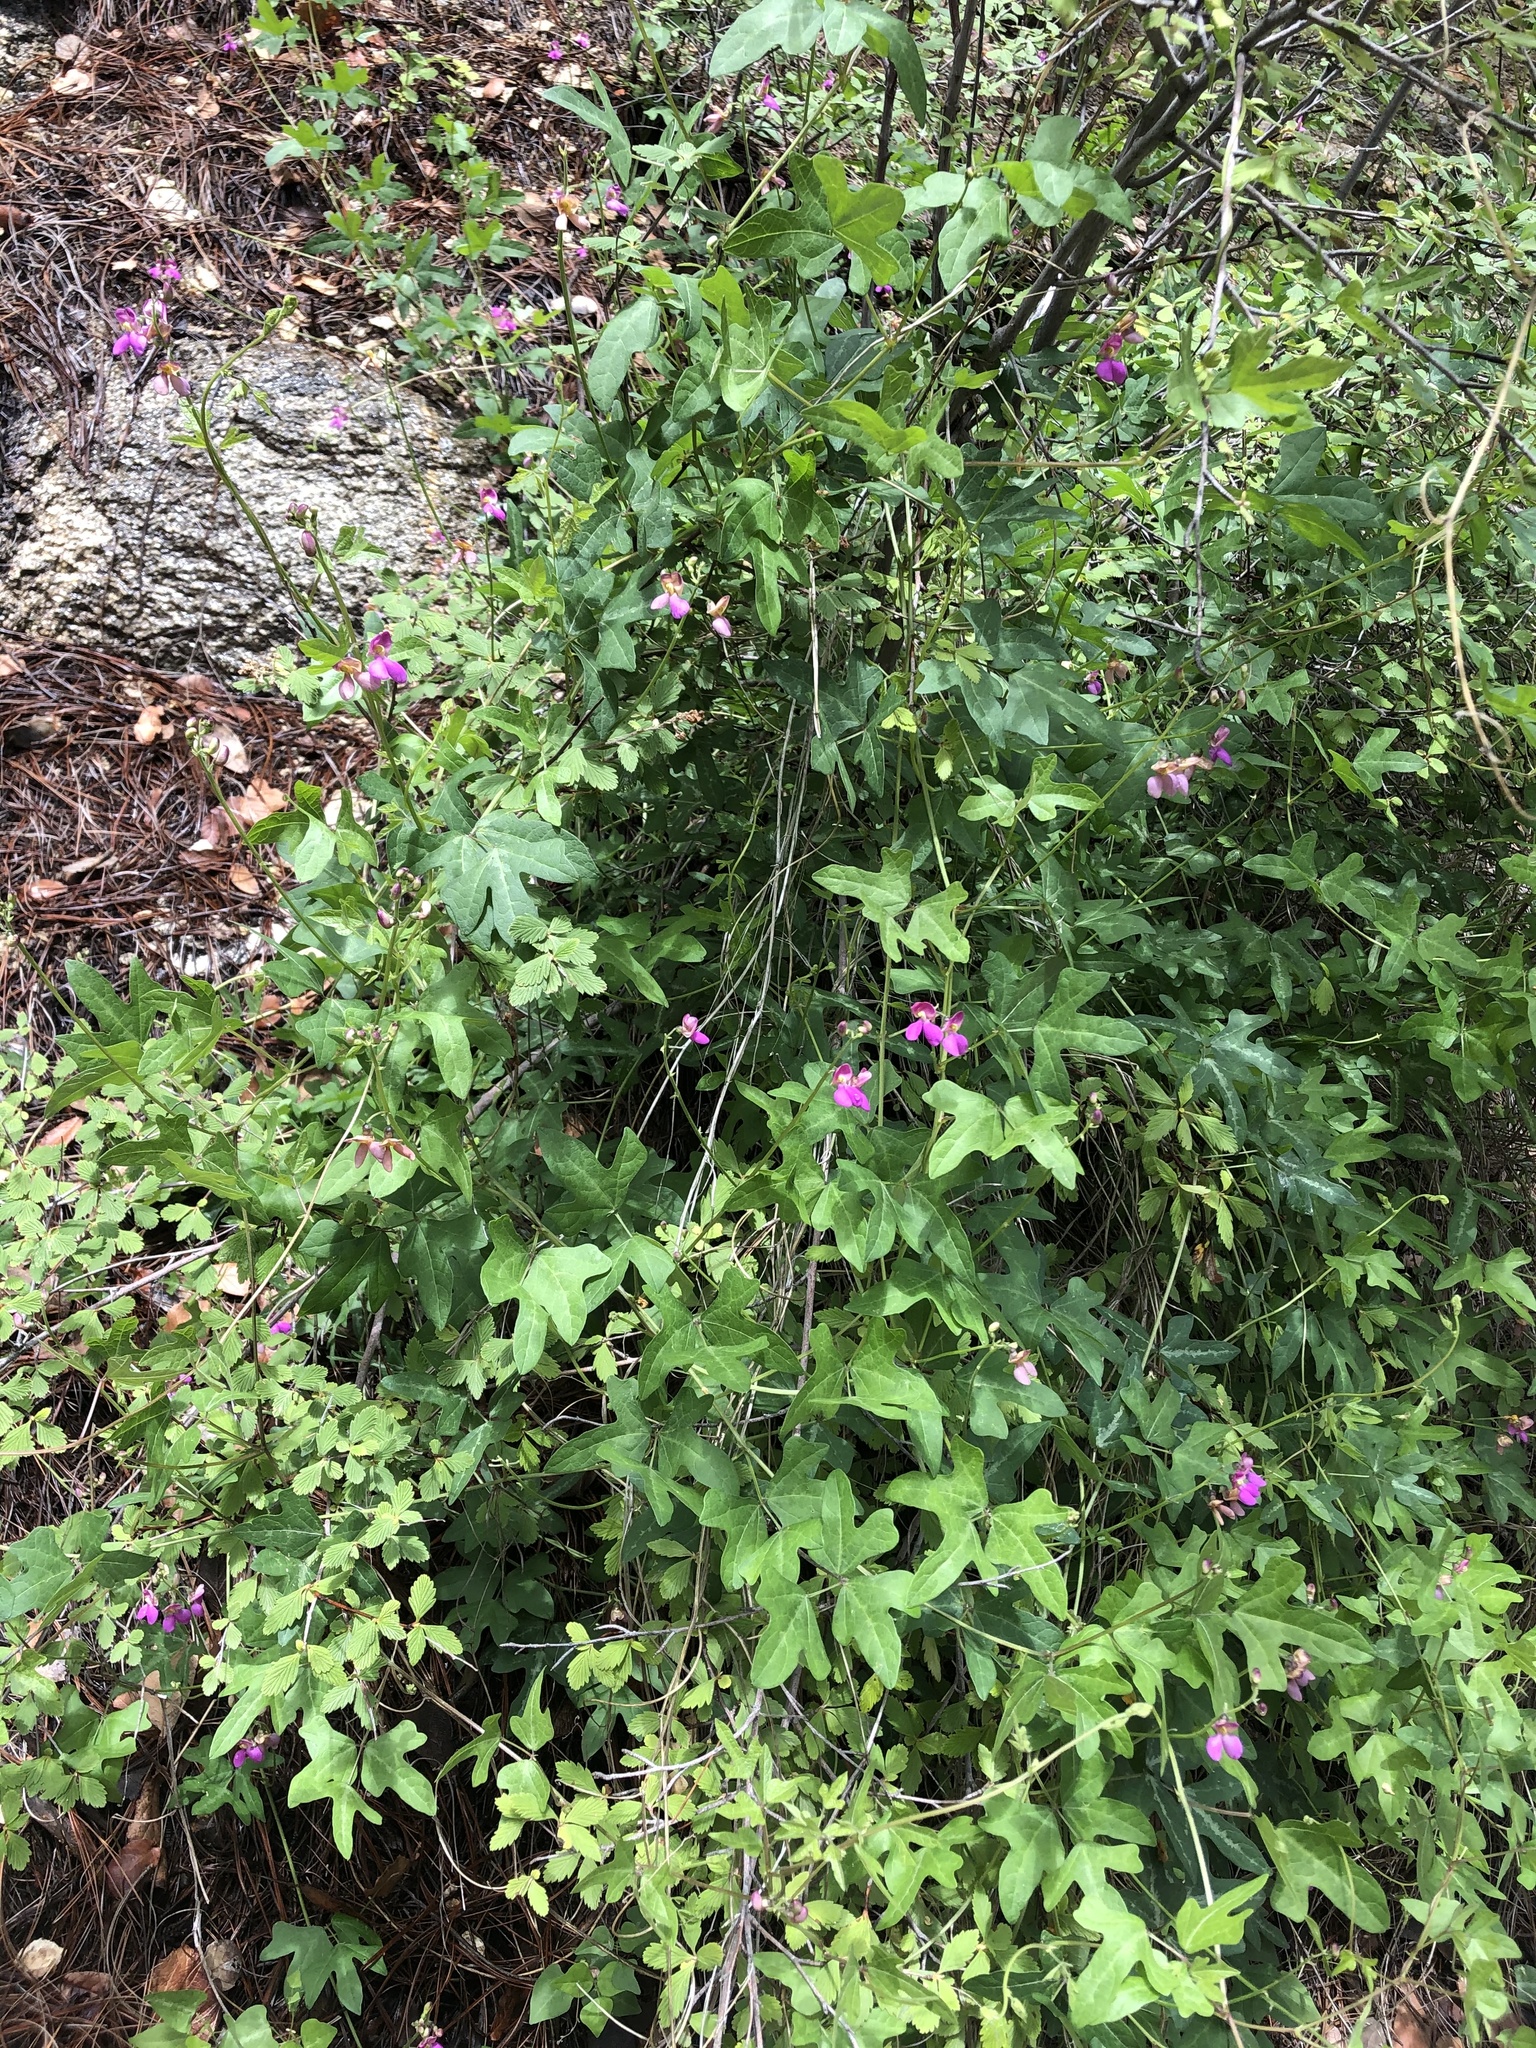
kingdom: Plantae
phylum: Tracheophyta
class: Magnoliopsida
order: Fabales
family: Fabaceae
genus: Phaseolus
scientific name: Phaseolus pedicellatus
